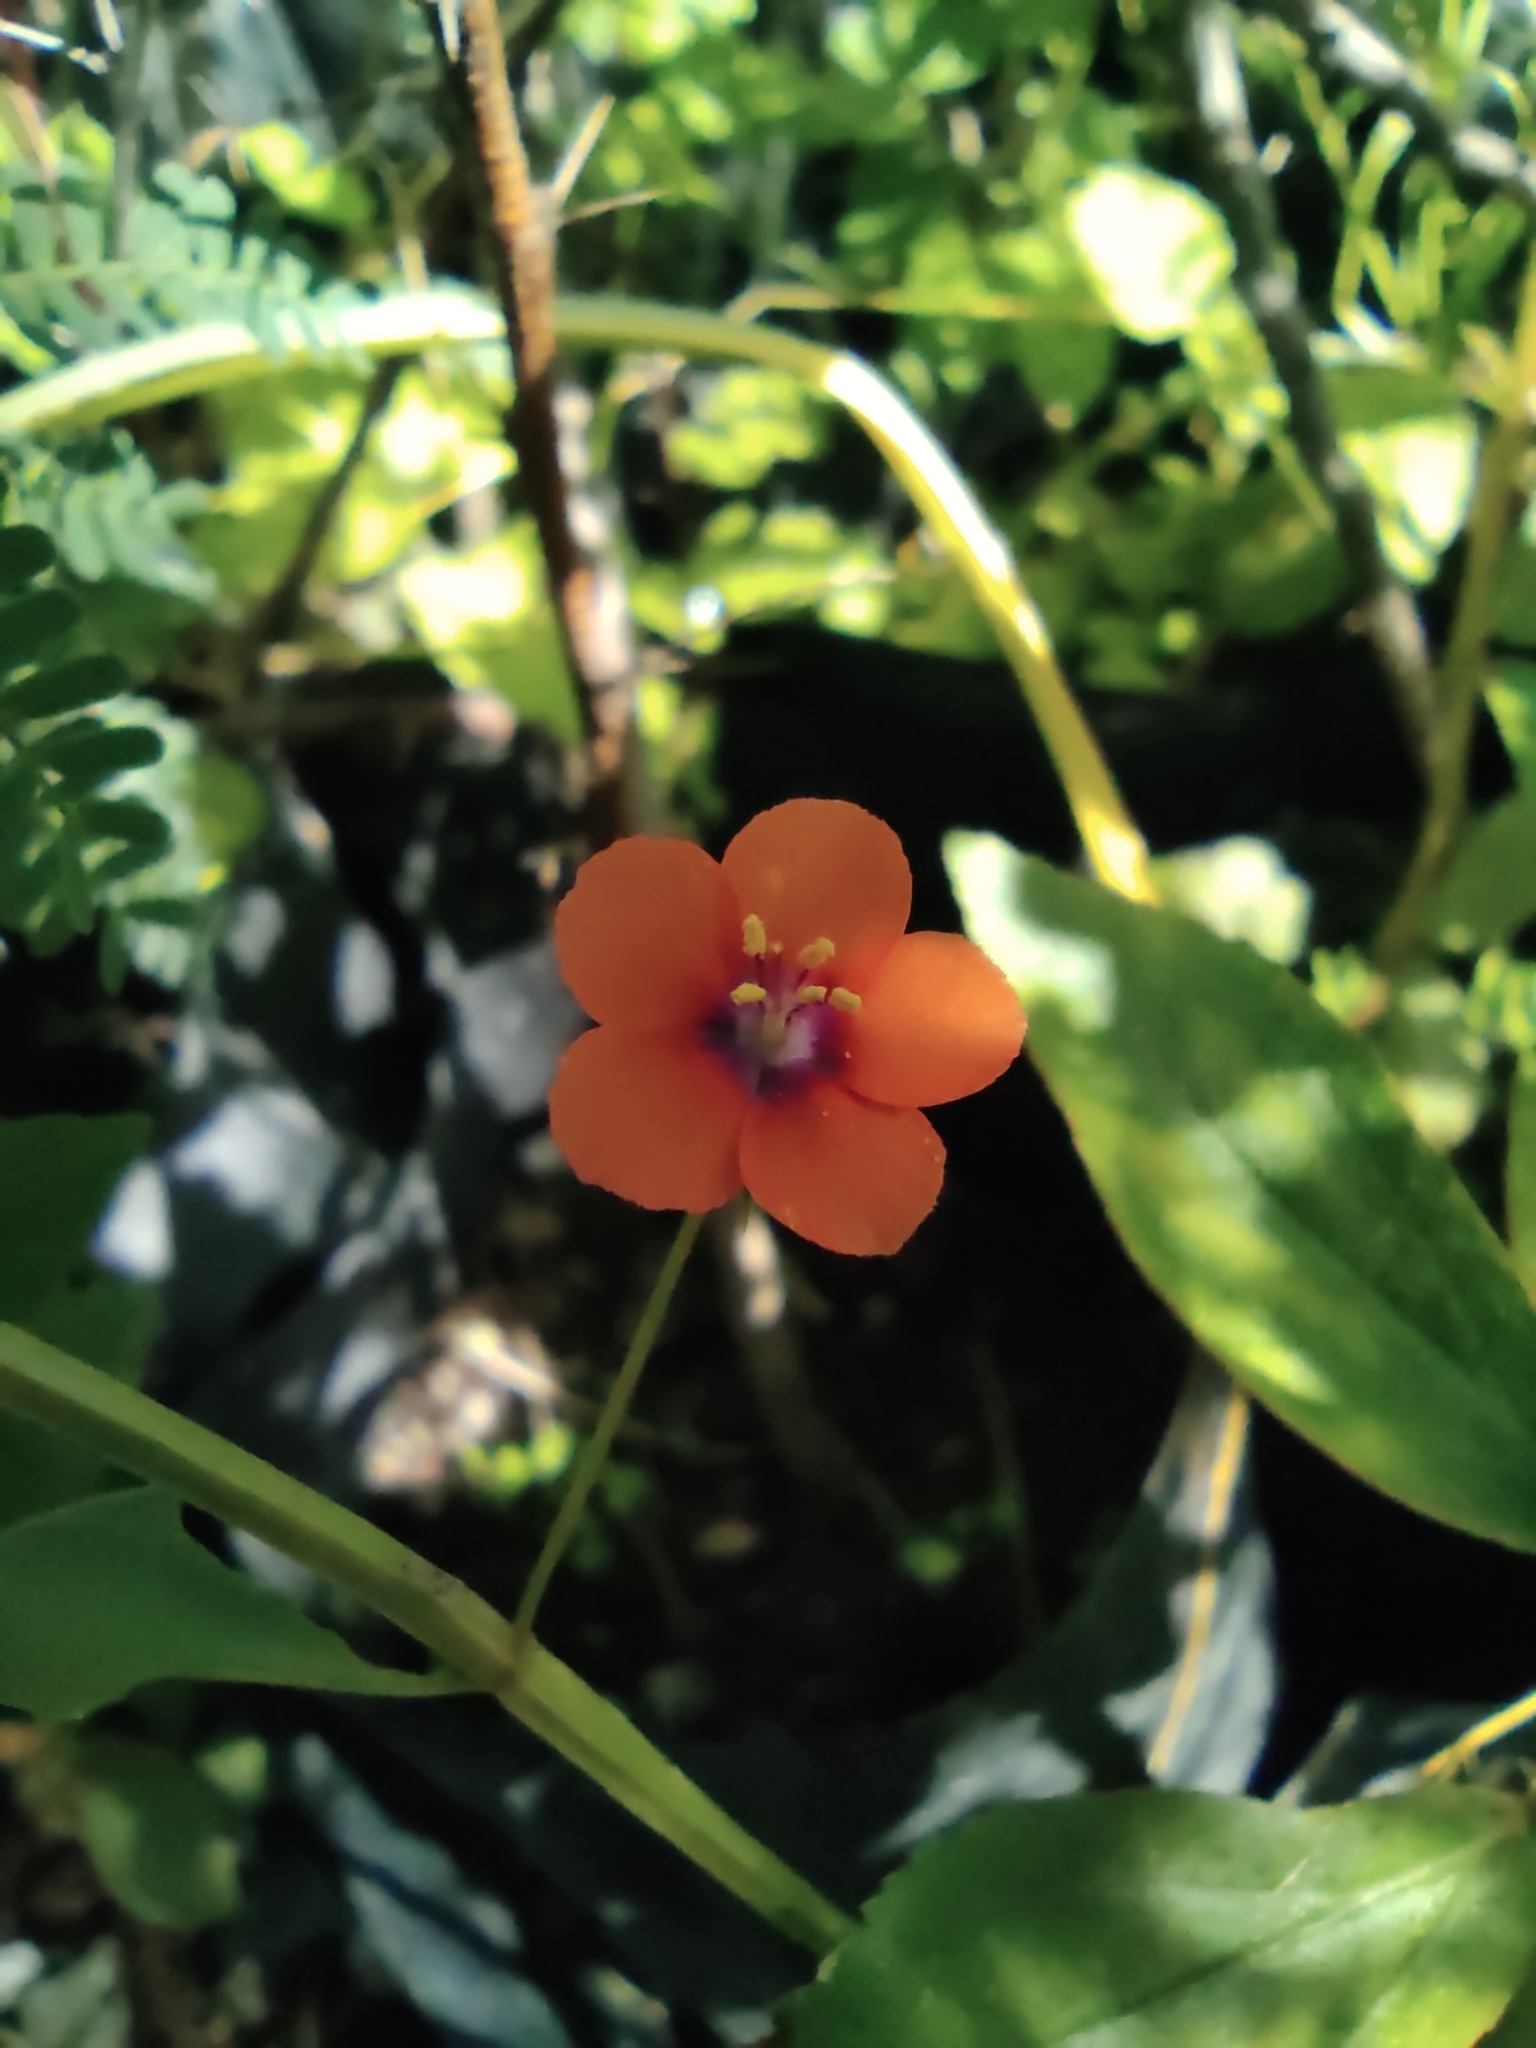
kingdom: Plantae
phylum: Tracheophyta
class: Magnoliopsida
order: Ericales
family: Primulaceae
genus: Lysimachia
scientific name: Lysimachia arvensis
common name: Scarlet pimpernel
